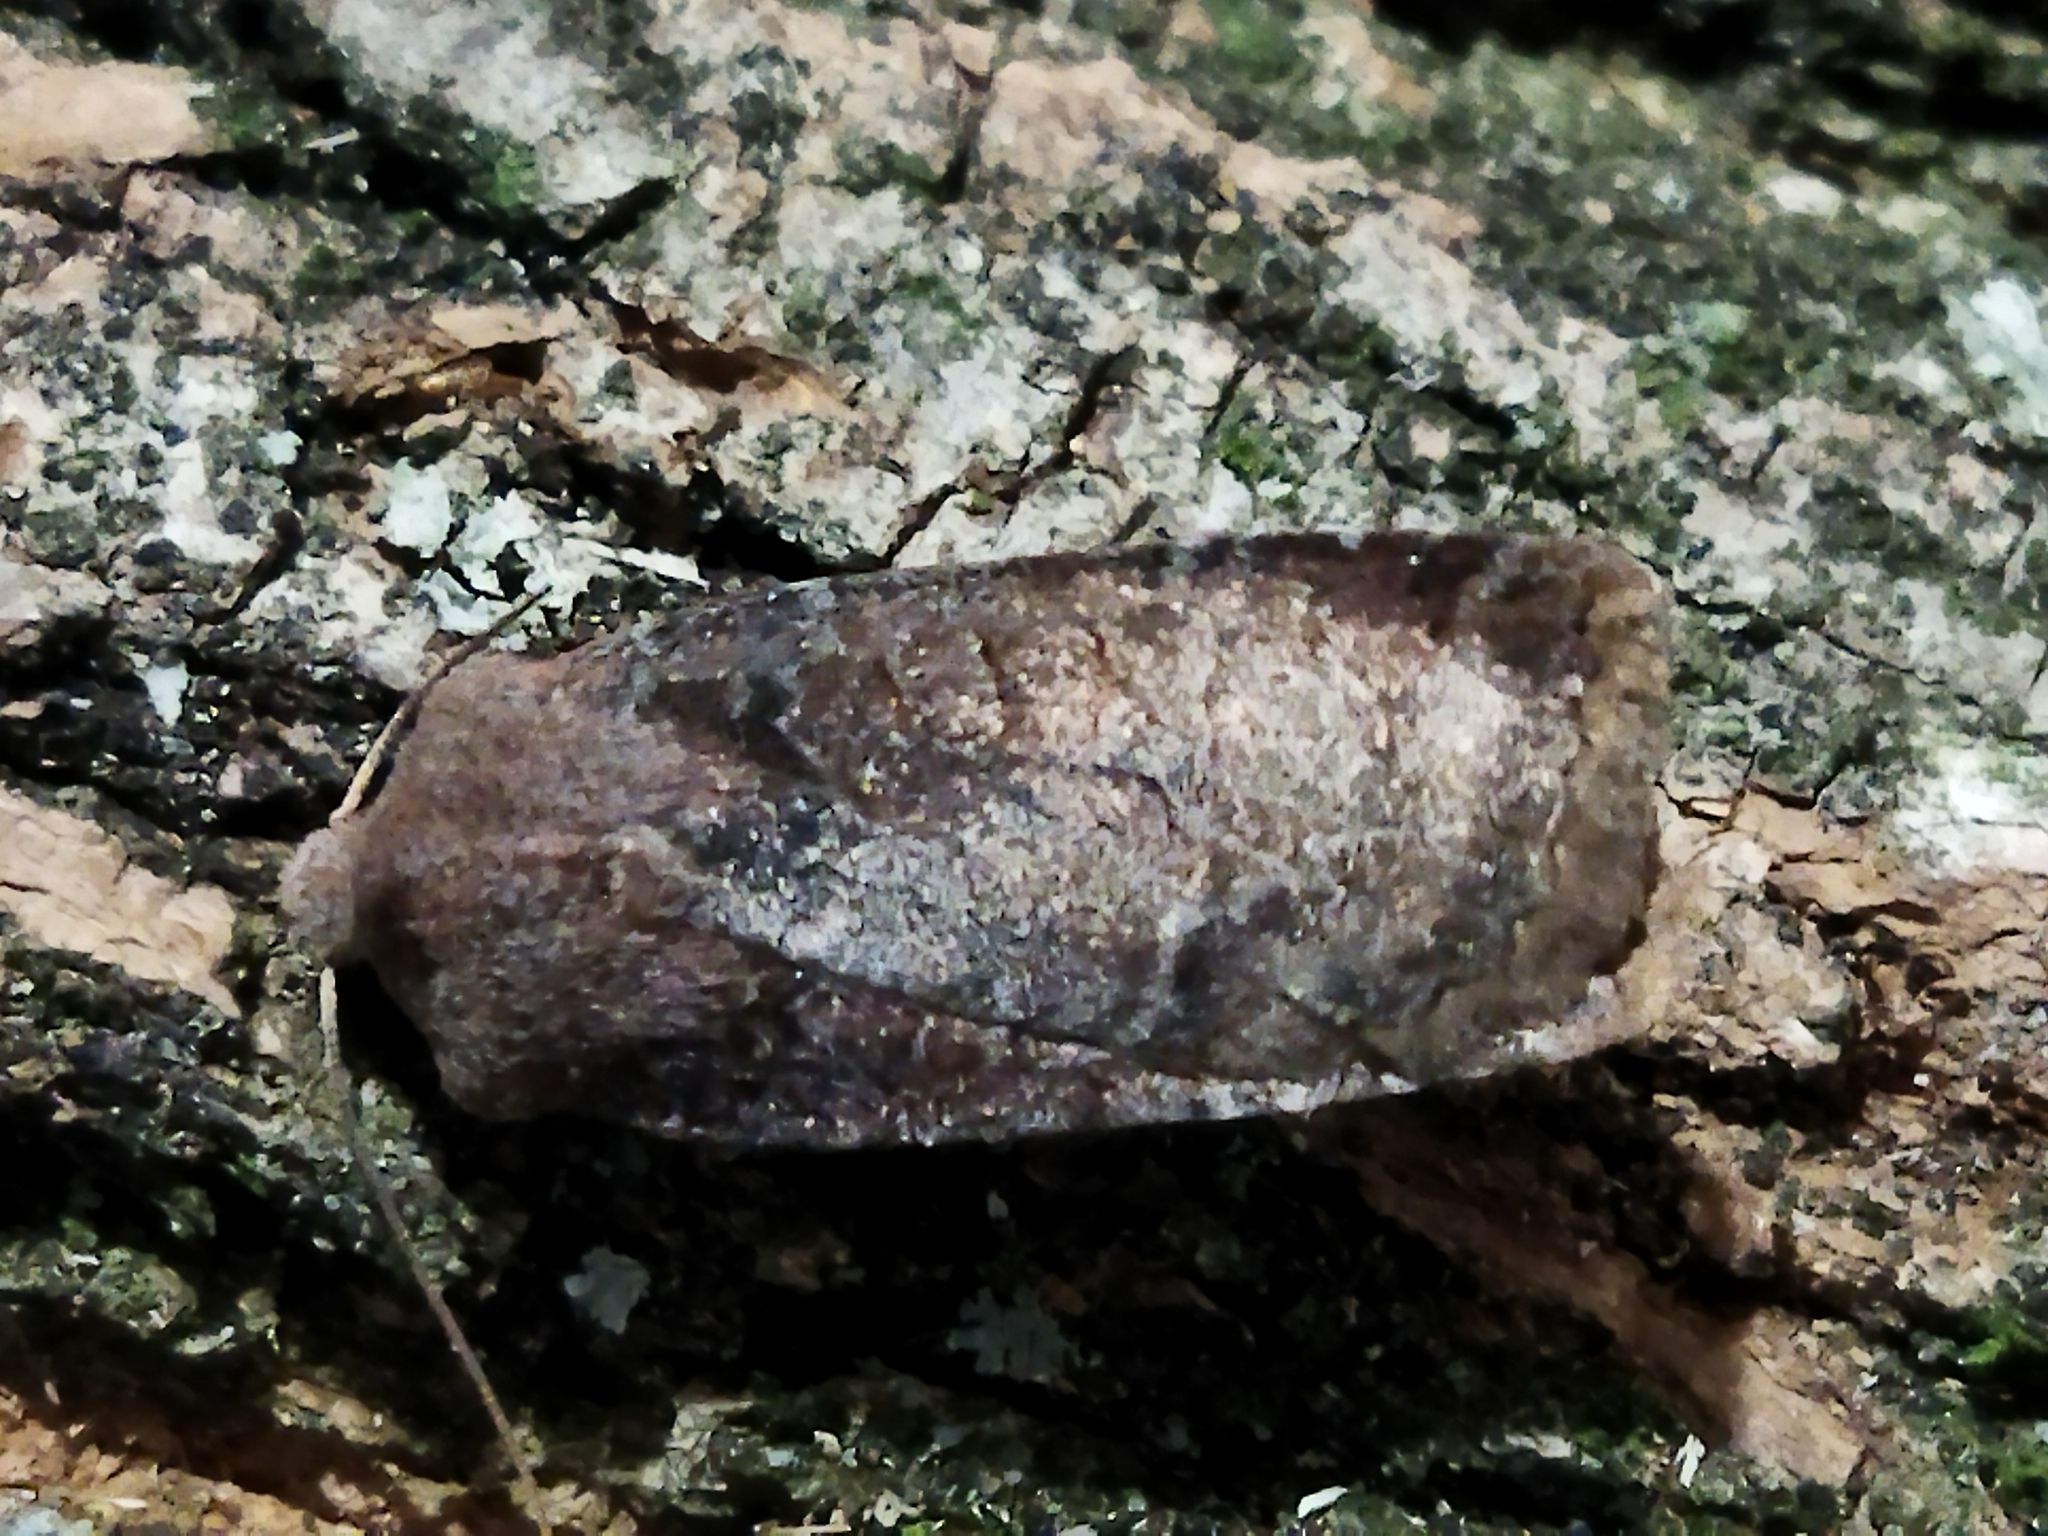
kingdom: Animalia
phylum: Arthropoda
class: Insecta
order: Lepidoptera
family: Noctuidae
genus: Conistra
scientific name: Conistra vaccinii
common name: Chestnut
